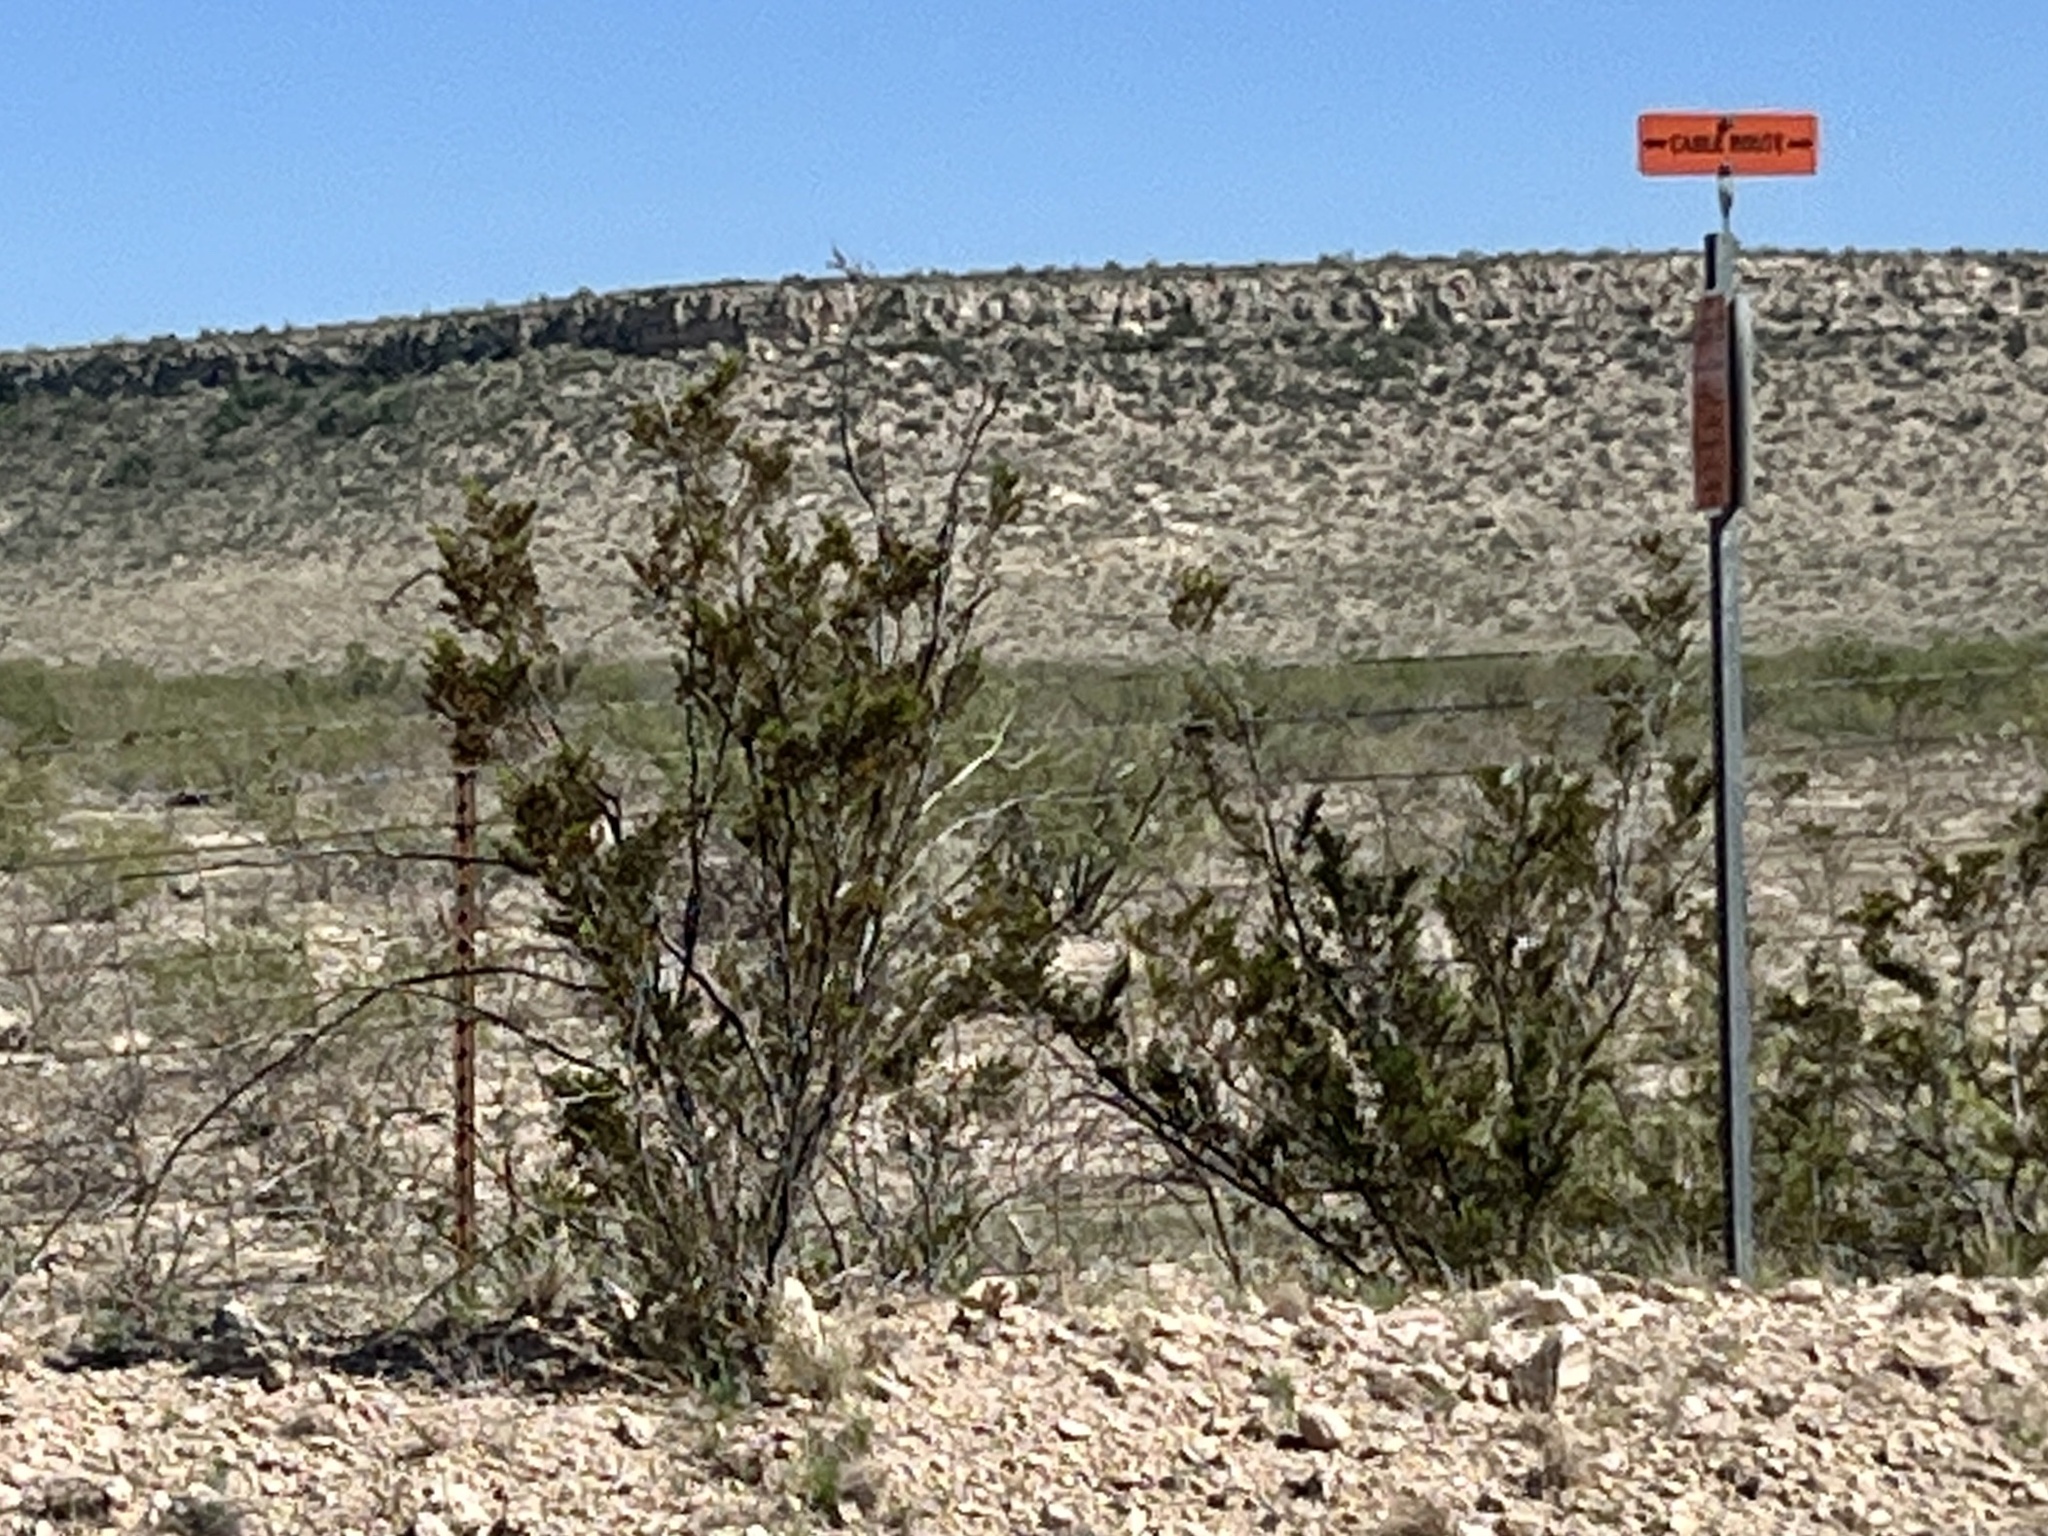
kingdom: Plantae
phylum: Tracheophyta
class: Magnoliopsida
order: Zygophyllales
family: Zygophyllaceae
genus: Larrea
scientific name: Larrea tridentata
